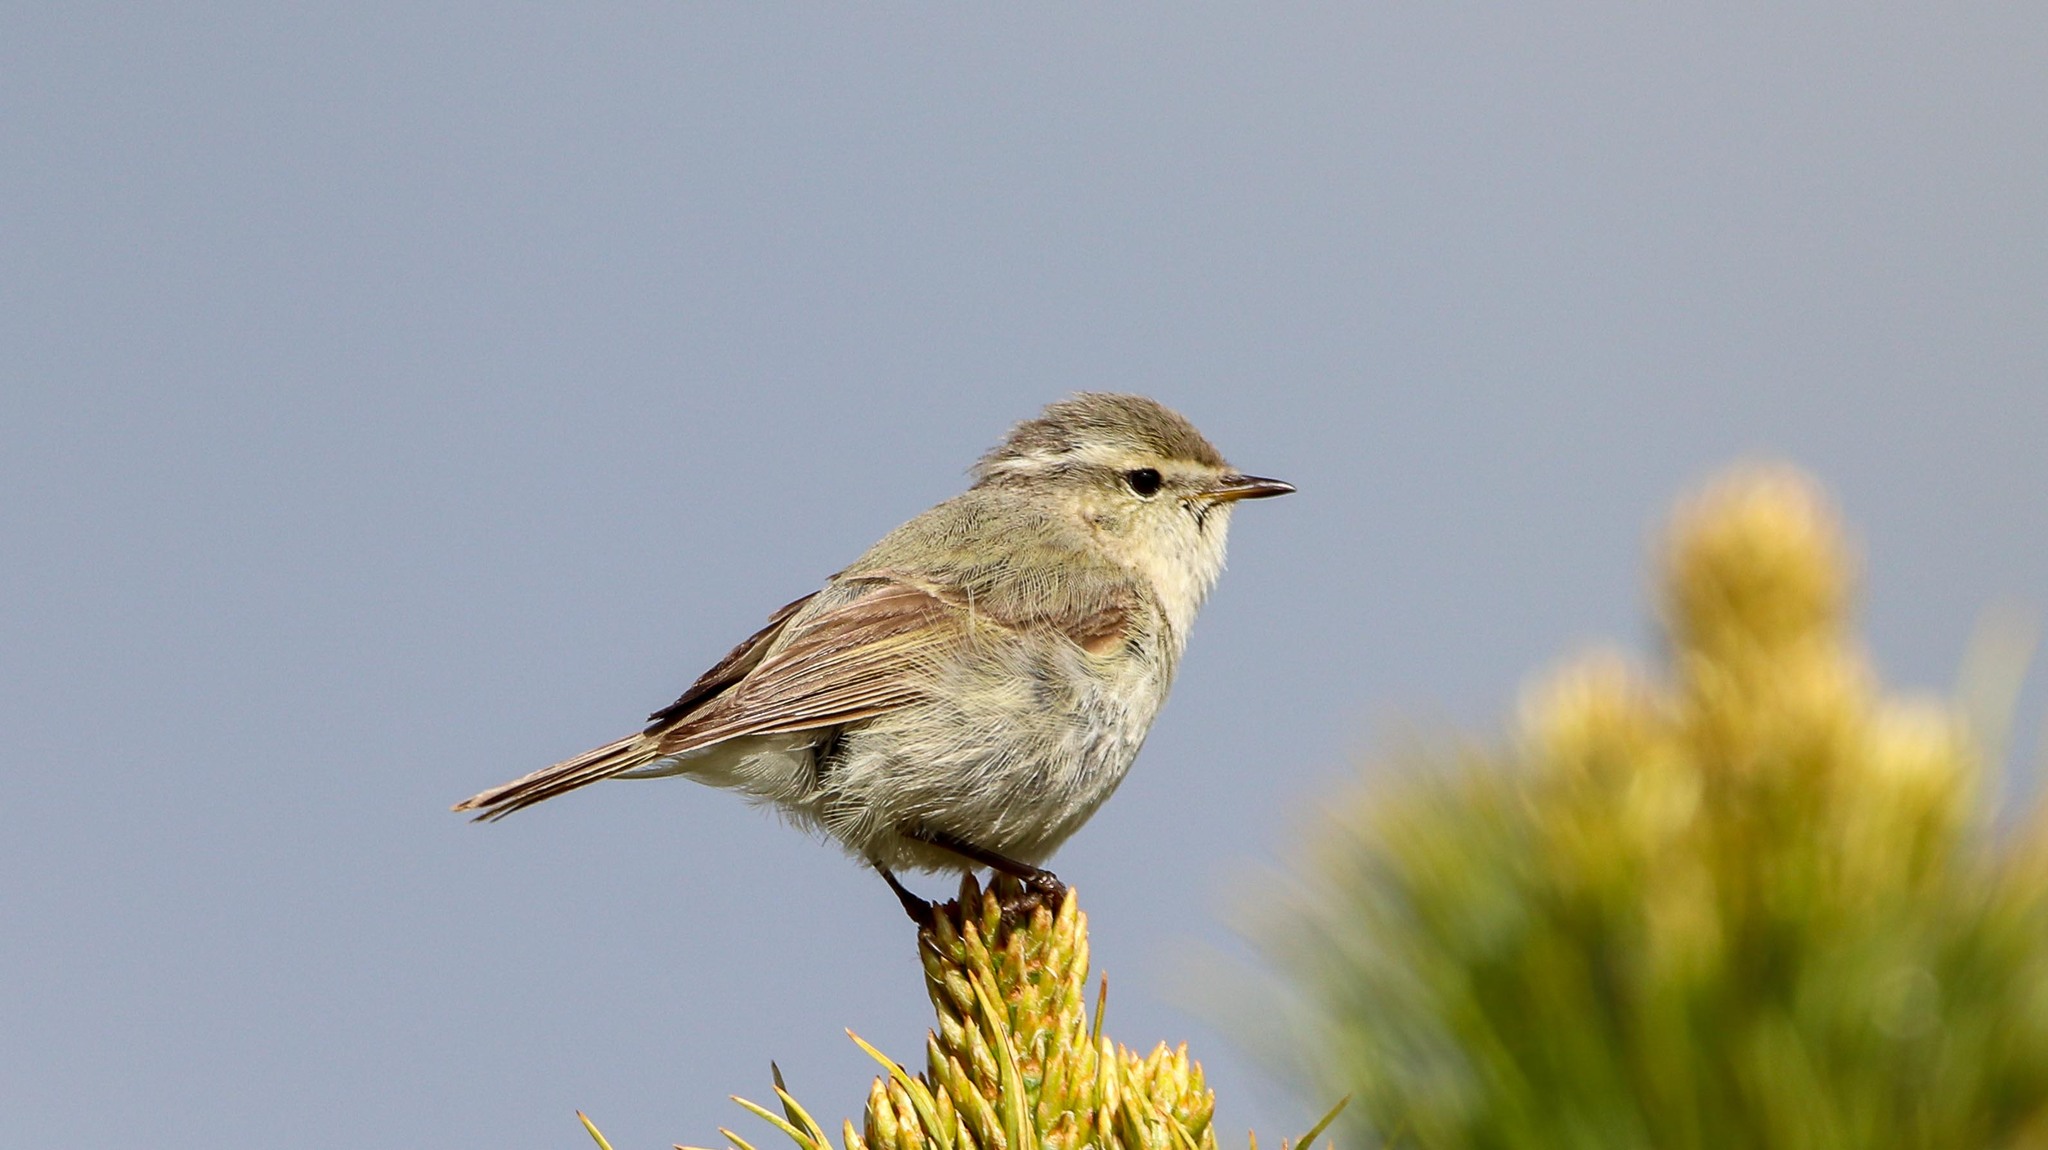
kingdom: Animalia
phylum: Chordata
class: Aves
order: Passeriformes
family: Phylloscopidae
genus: Phylloscopus
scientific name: Phylloscopus humei
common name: Hume's leaf warbler
